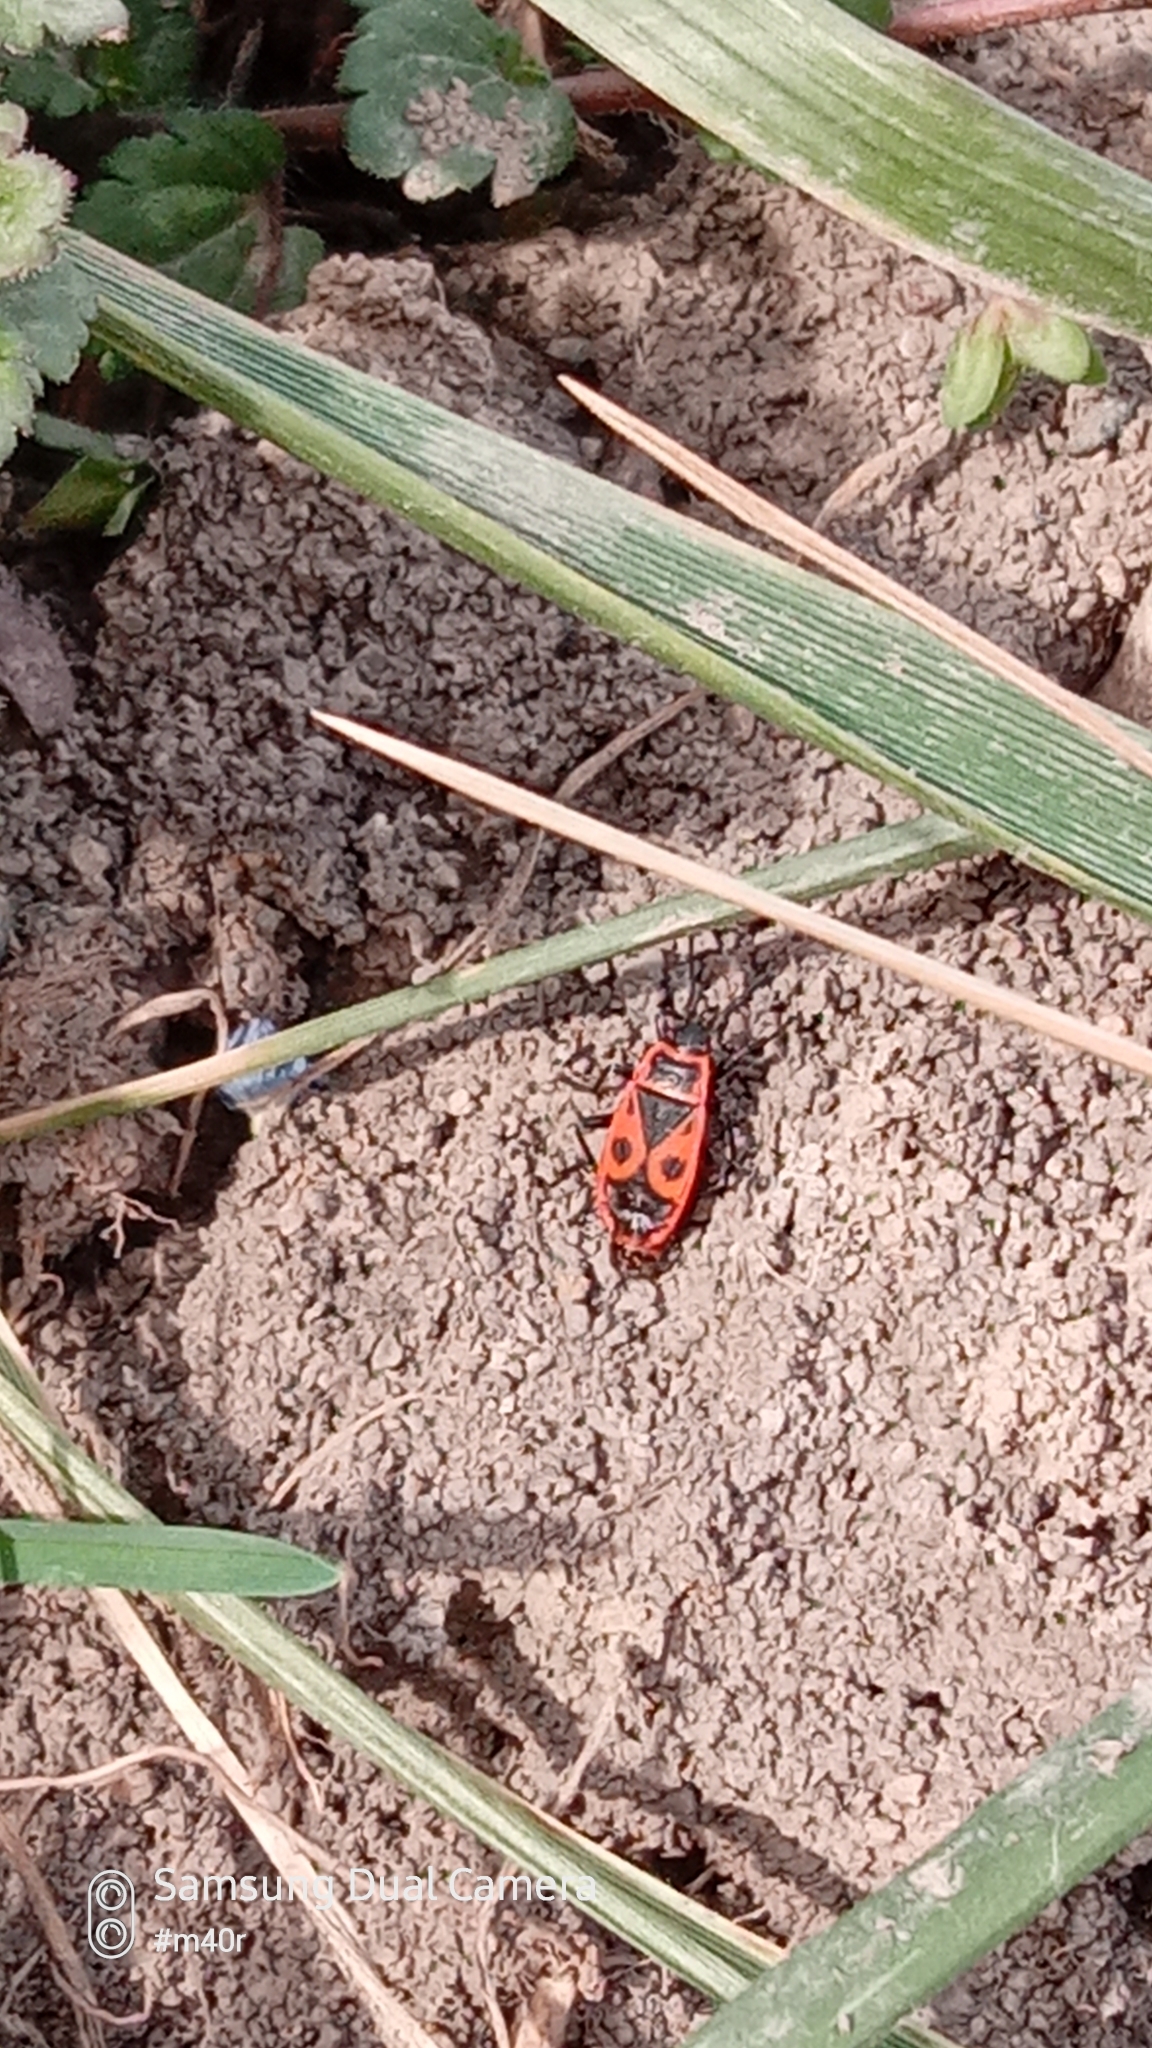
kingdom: Animalia
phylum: Arthropoda
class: Insecta
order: Hemiptera
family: Pyrrhocoridae
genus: Pyrrhocoris
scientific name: Pyrrhocoris apterus
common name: Firebug
